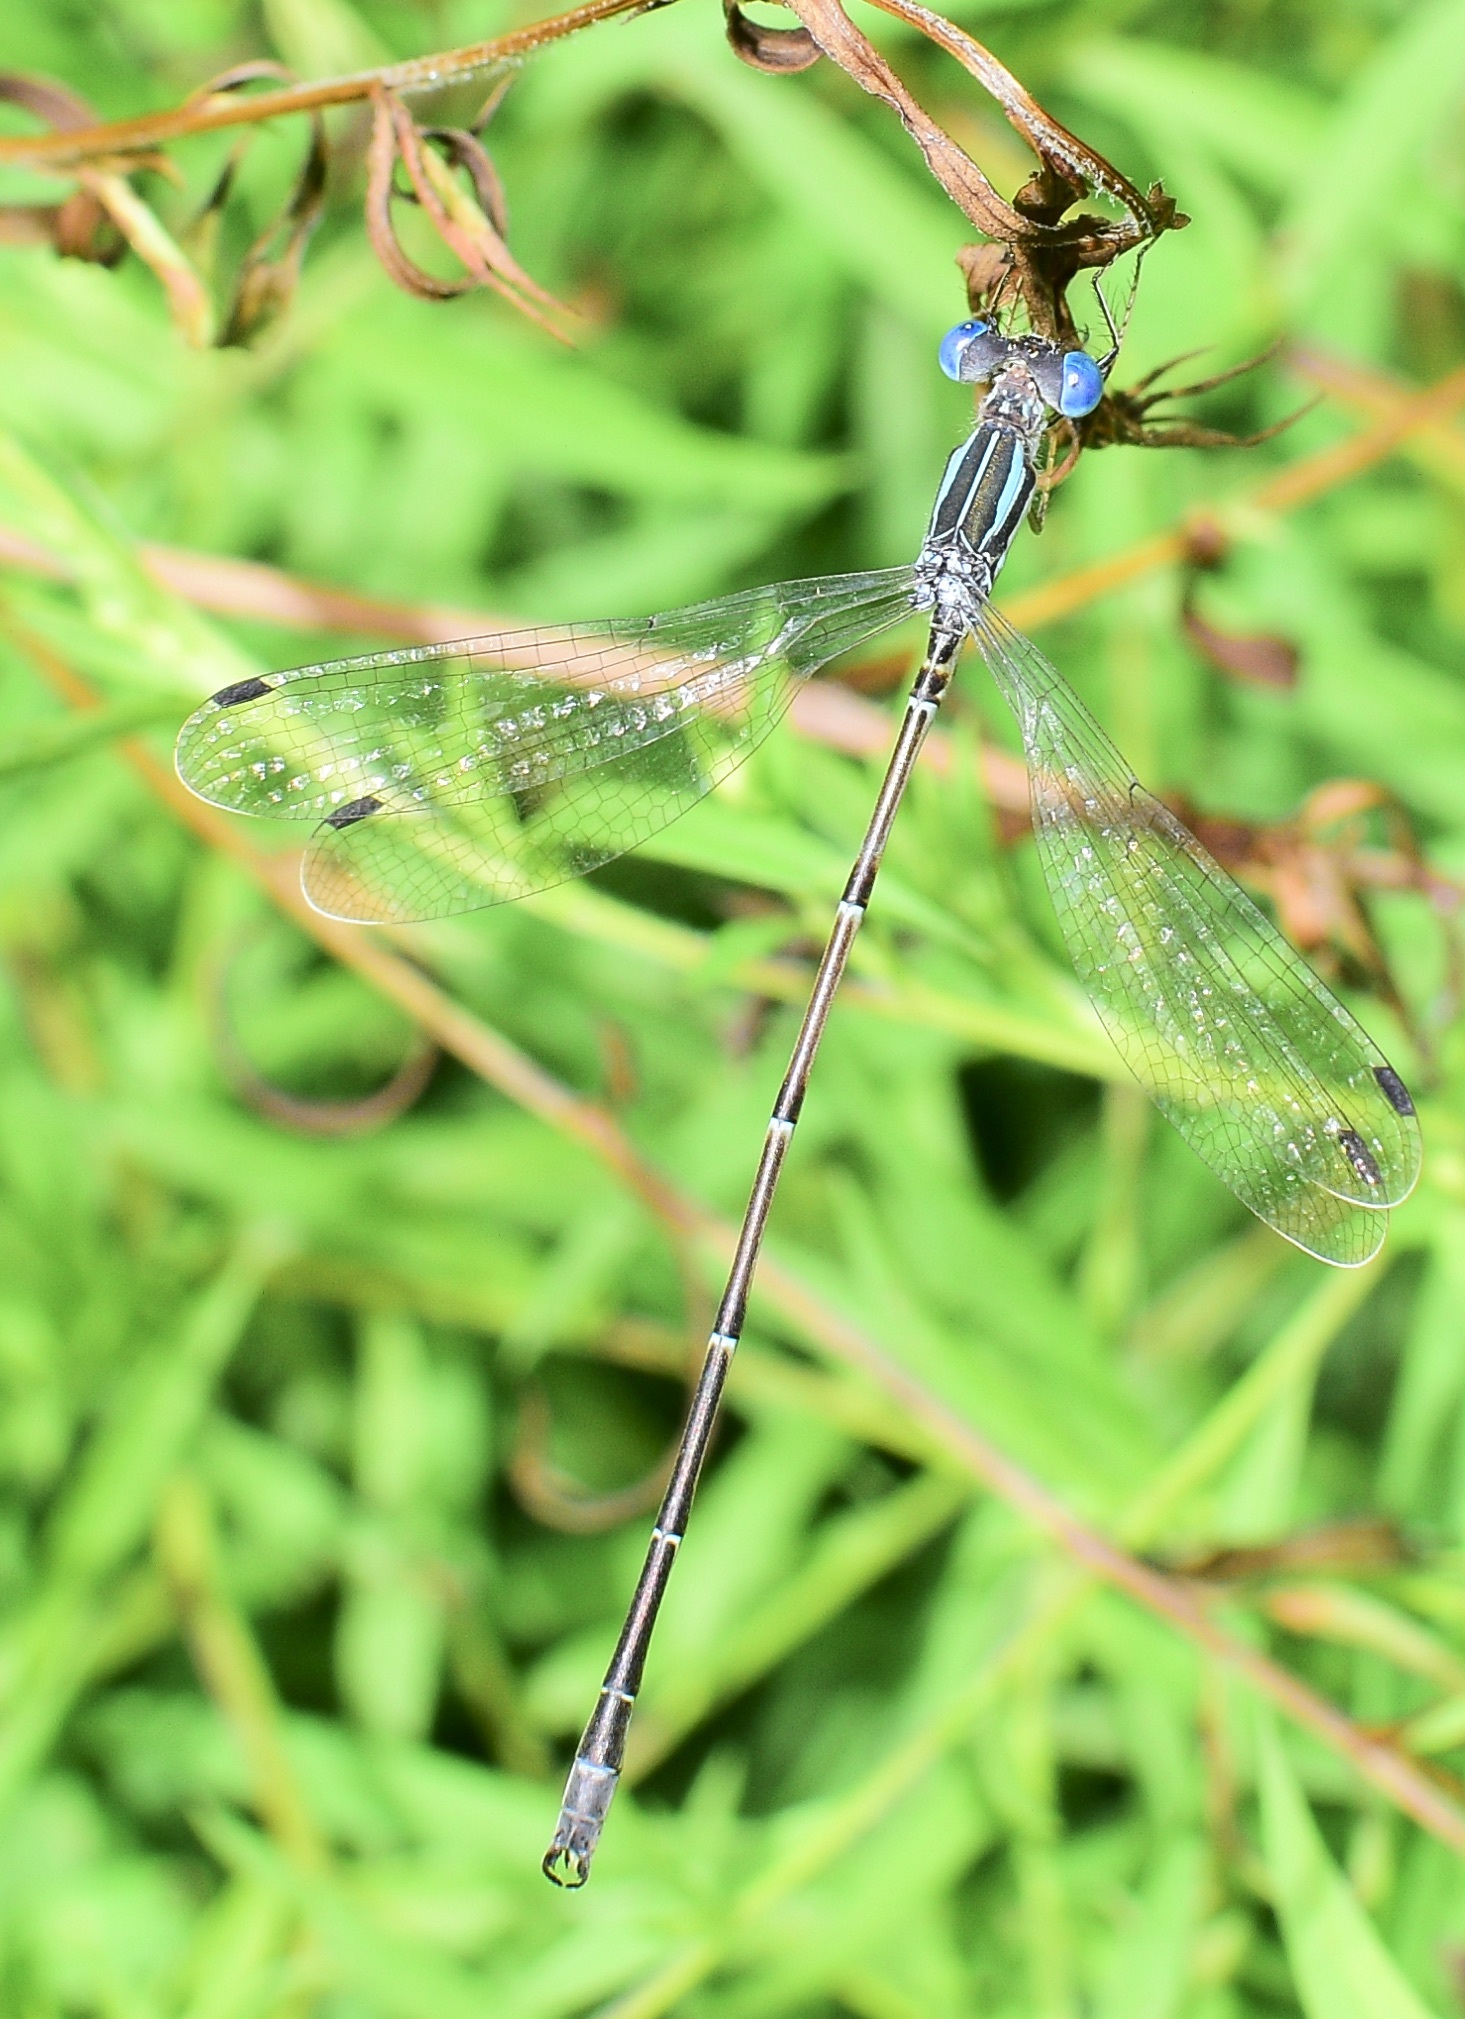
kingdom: Animalia
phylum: Arthropoda
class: Insecta
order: Odonata
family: Lestidae
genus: Lestes
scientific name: Lestes rectangularis
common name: Slender spreadwing
